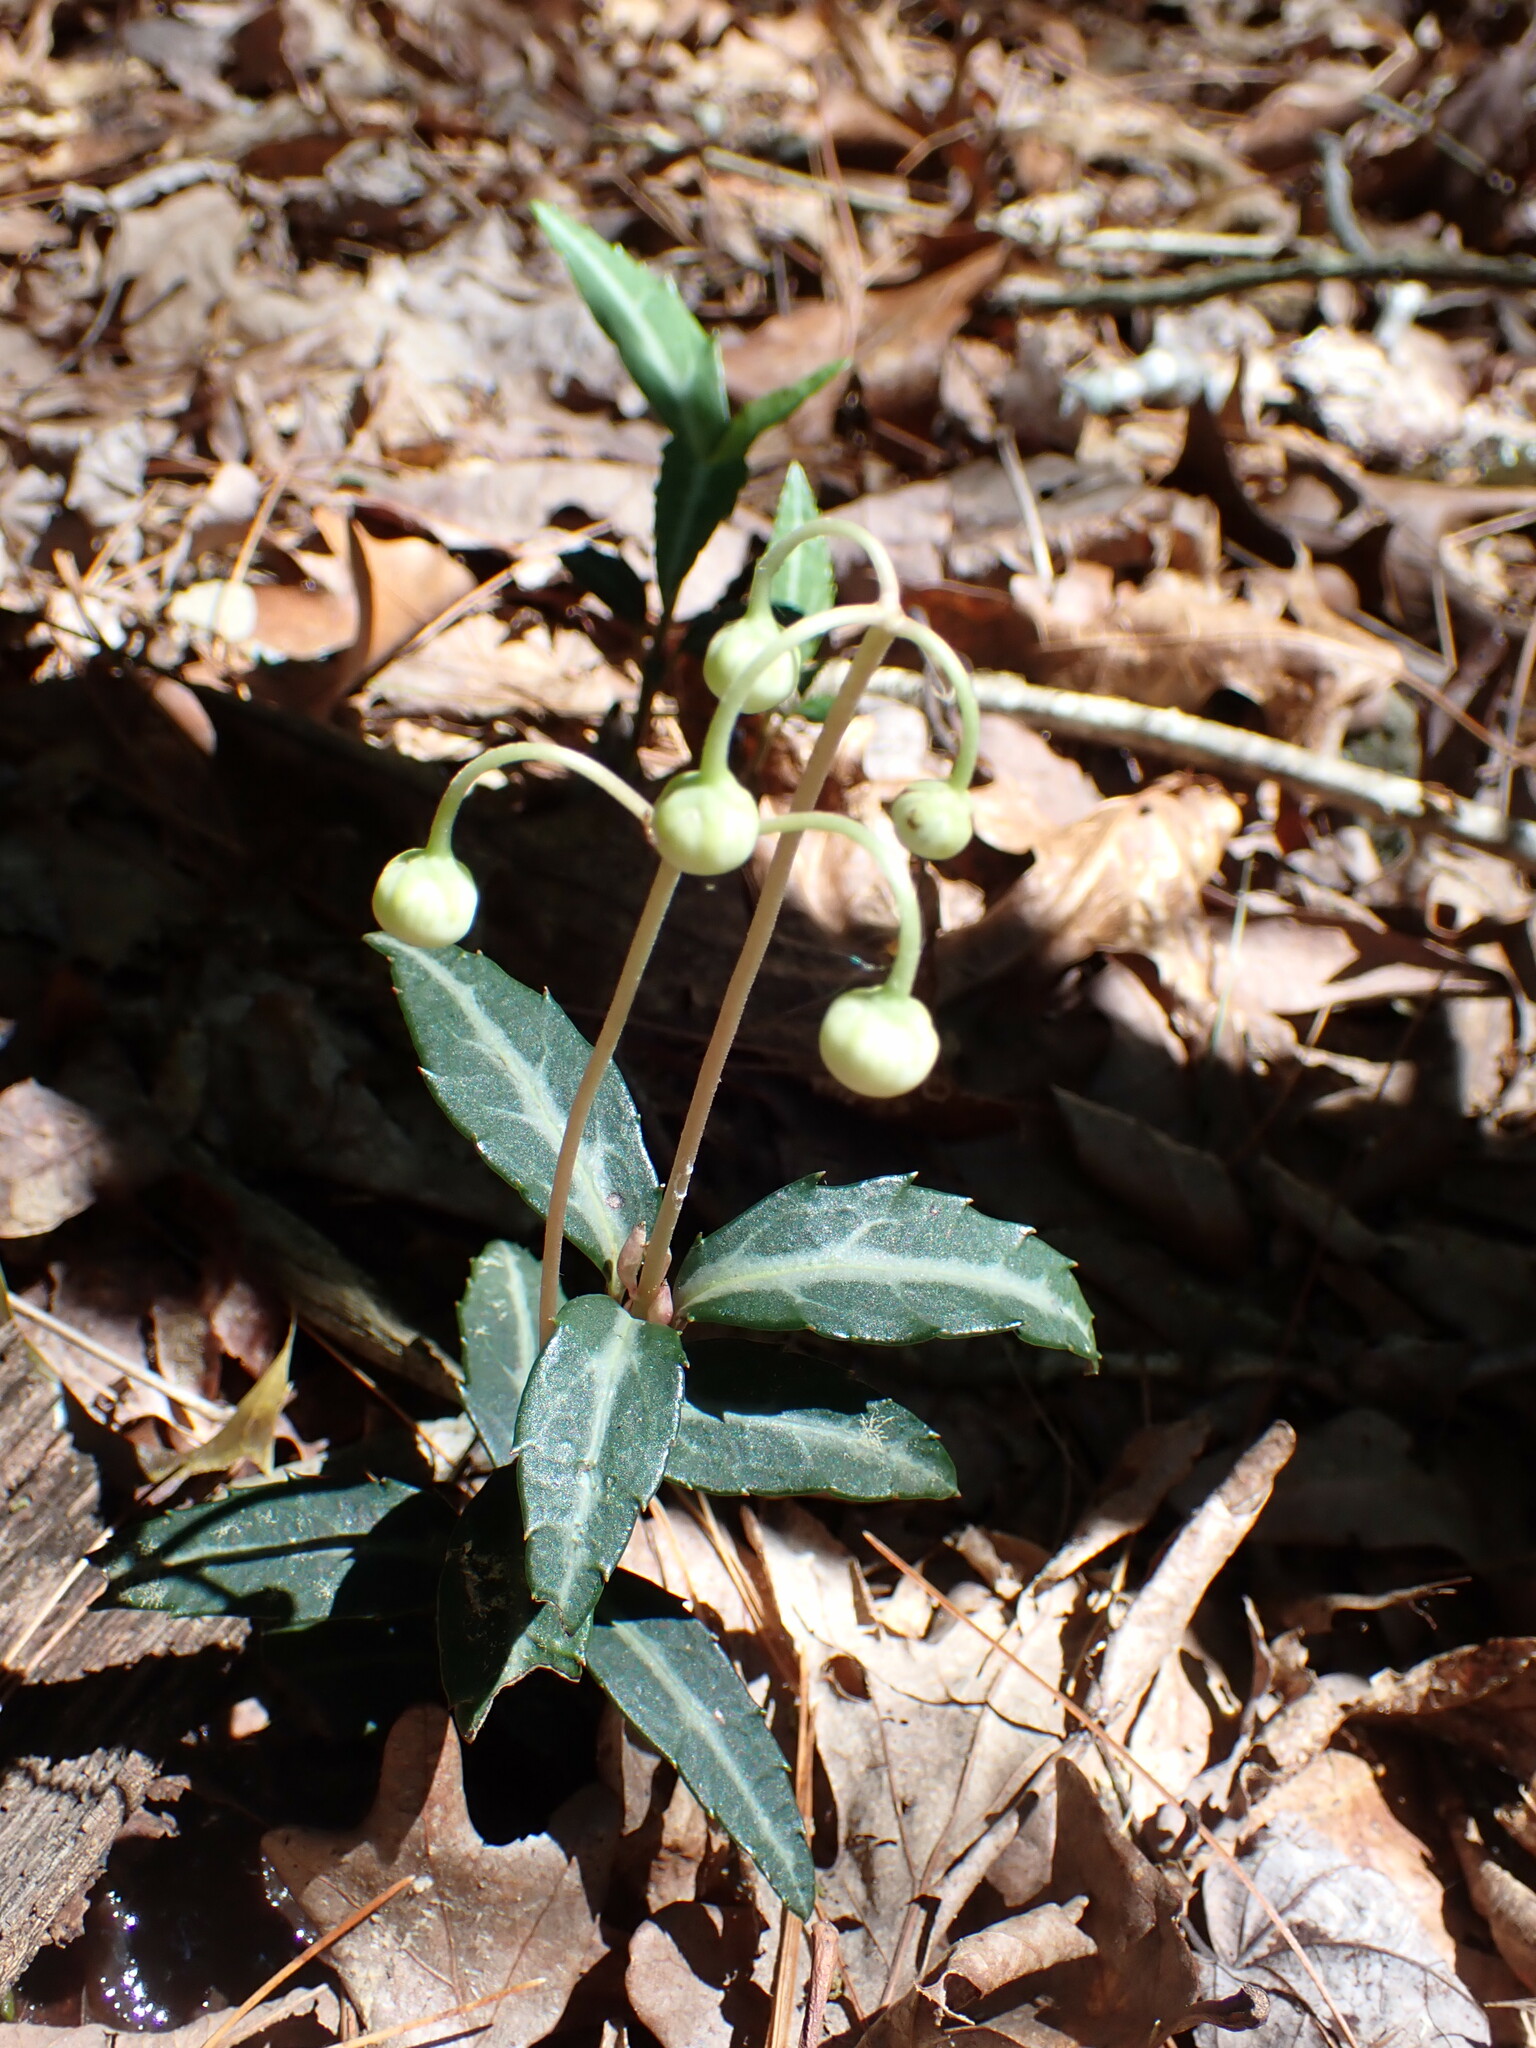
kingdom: Plantae
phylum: Tracheophyta
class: Magnoliopsida
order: Ericales
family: Ericaceae
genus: Chimaphila
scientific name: Chimaphila maculata
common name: Spotted pipsissewa
